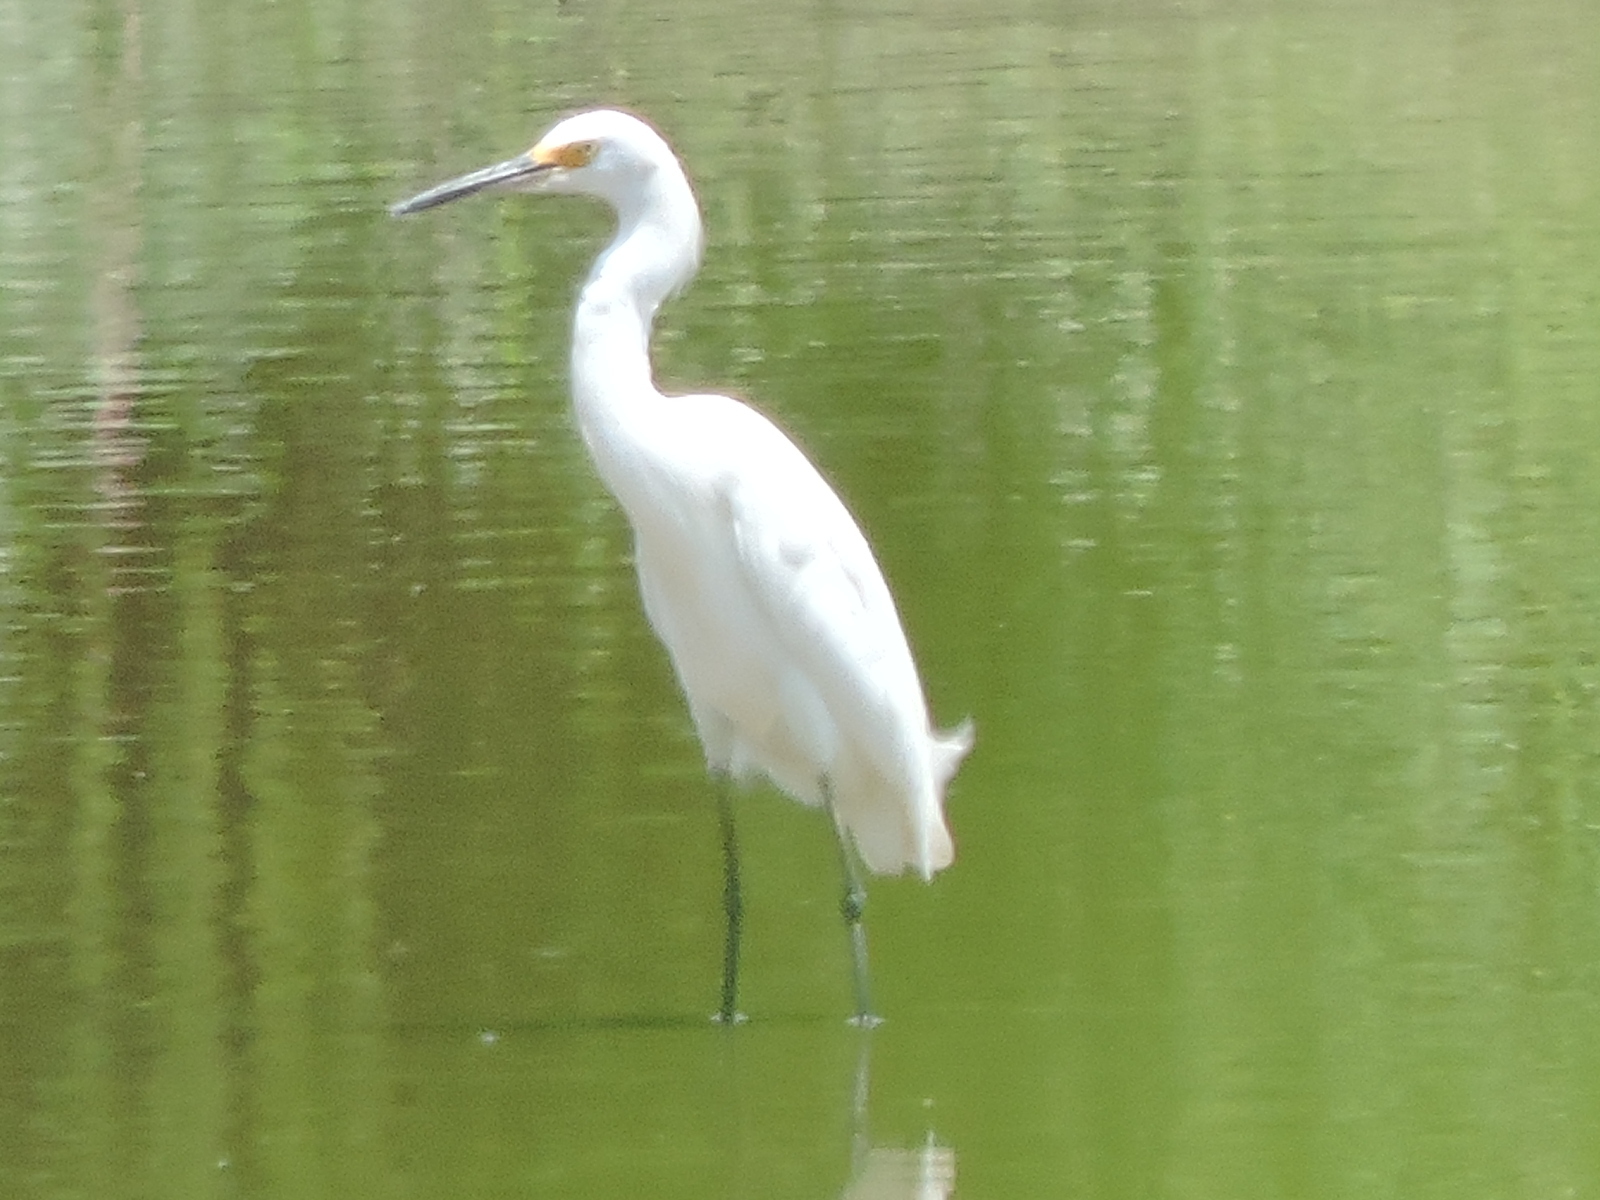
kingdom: Animalia
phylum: Chordata
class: Aves
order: Pelecaniformes
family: Ardeidae
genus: Egretta
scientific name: Egretta thula
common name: Snowy egret
